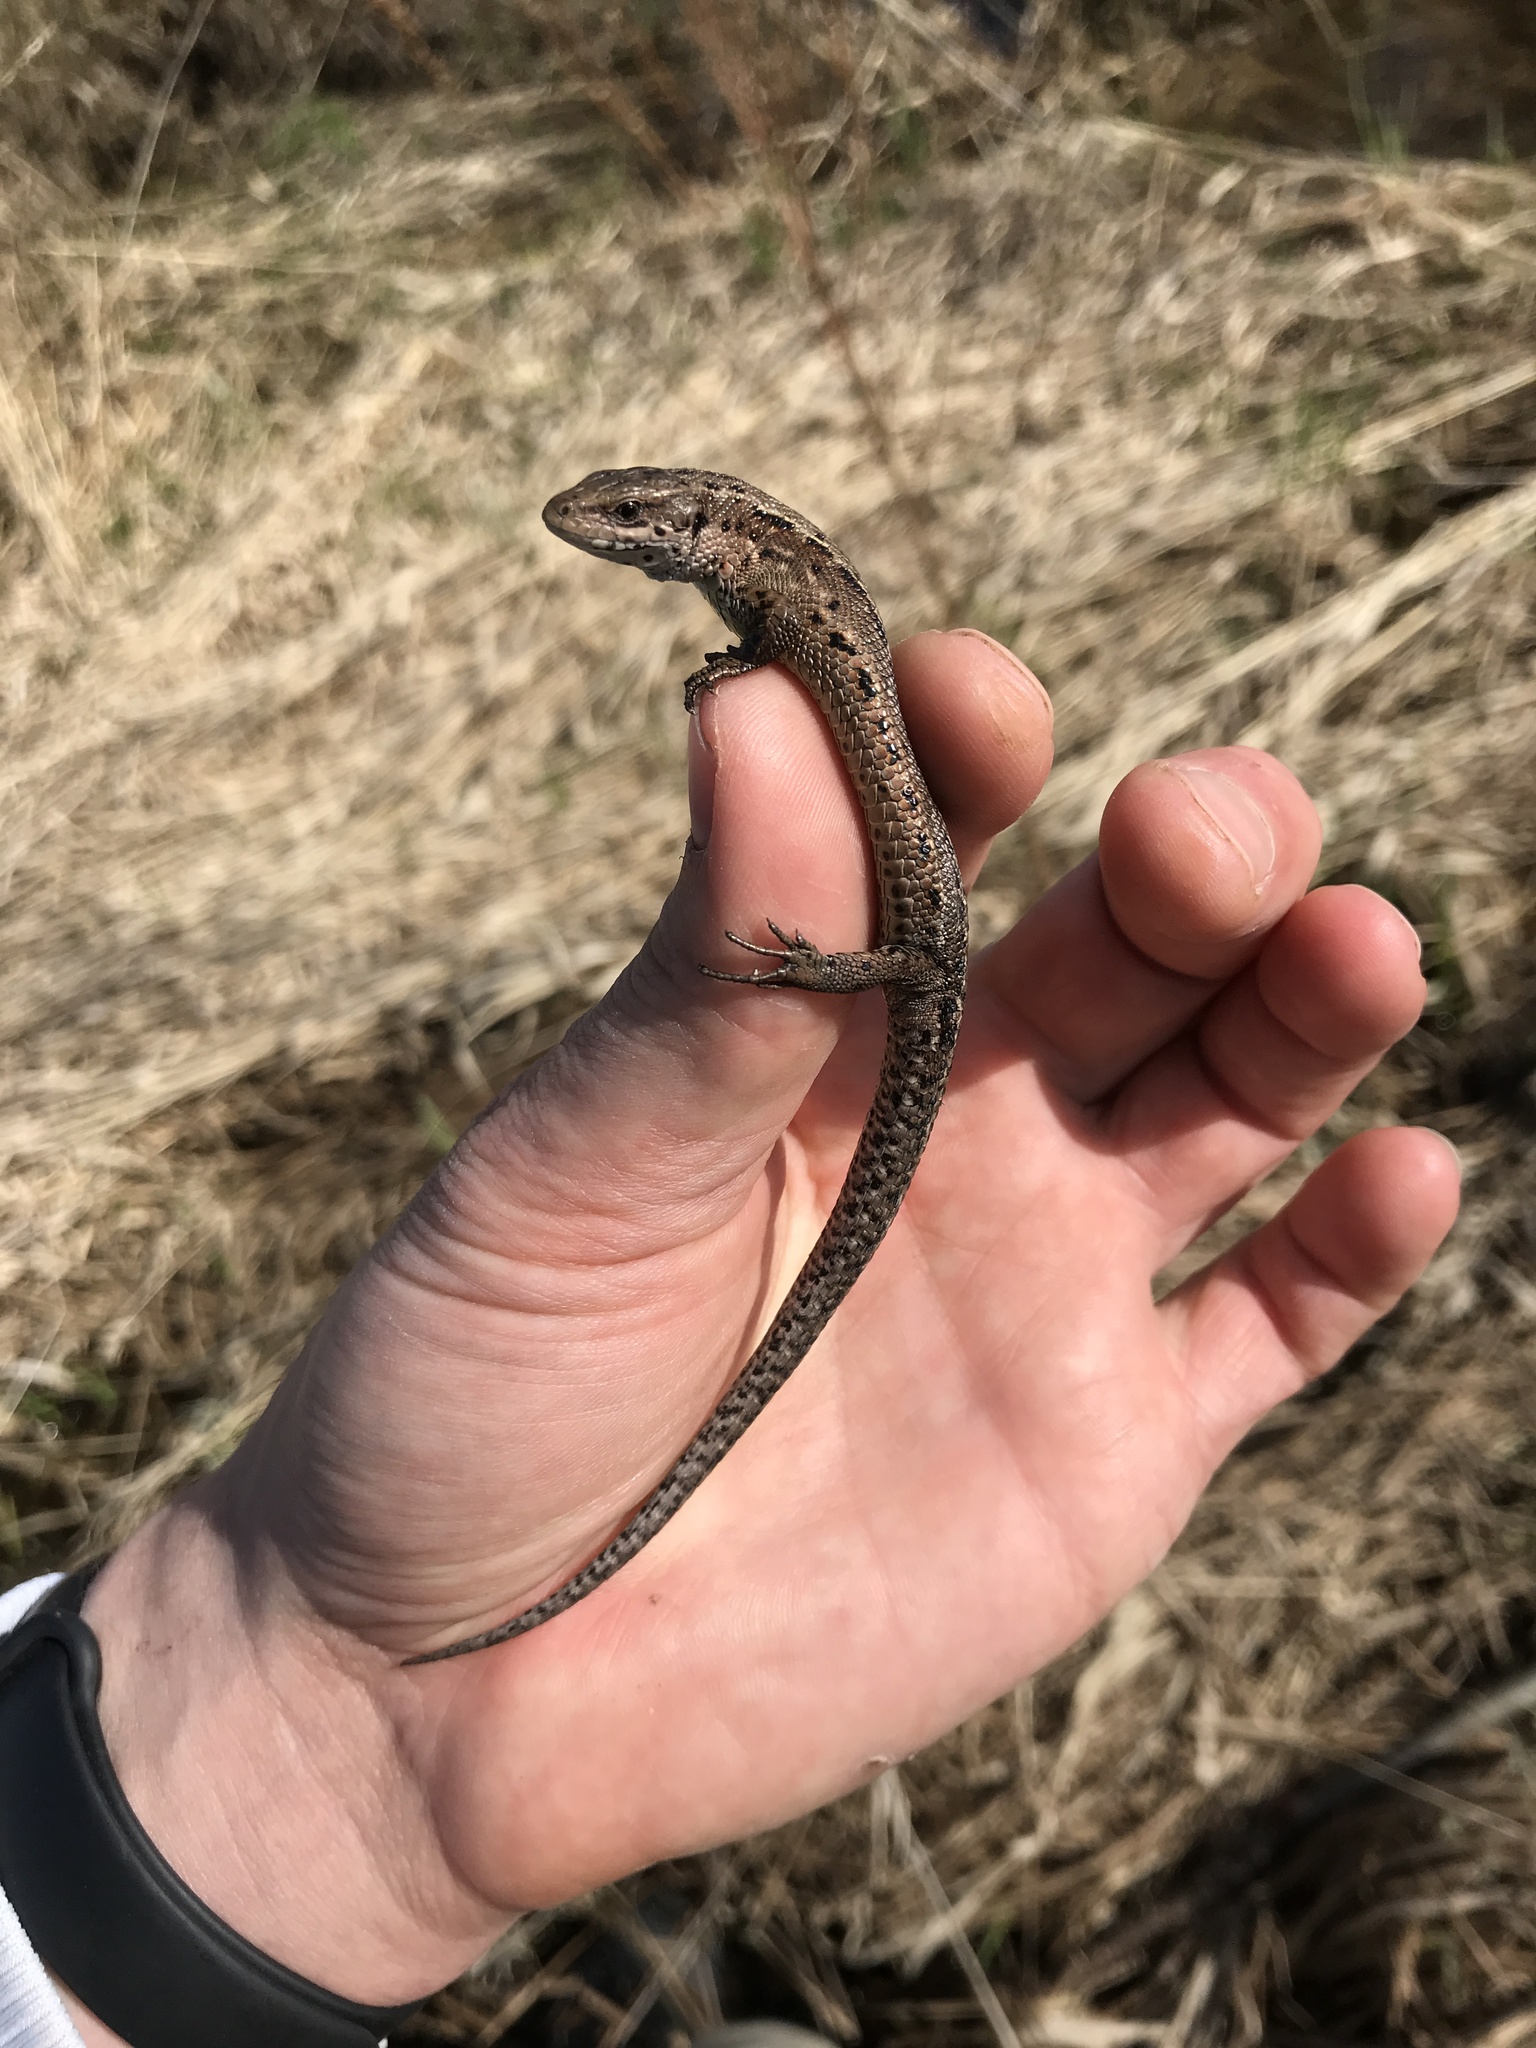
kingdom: Animalia
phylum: Chordata
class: Squamata
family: Lacertidae
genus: Zootoca
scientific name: Zootoca vivipara
